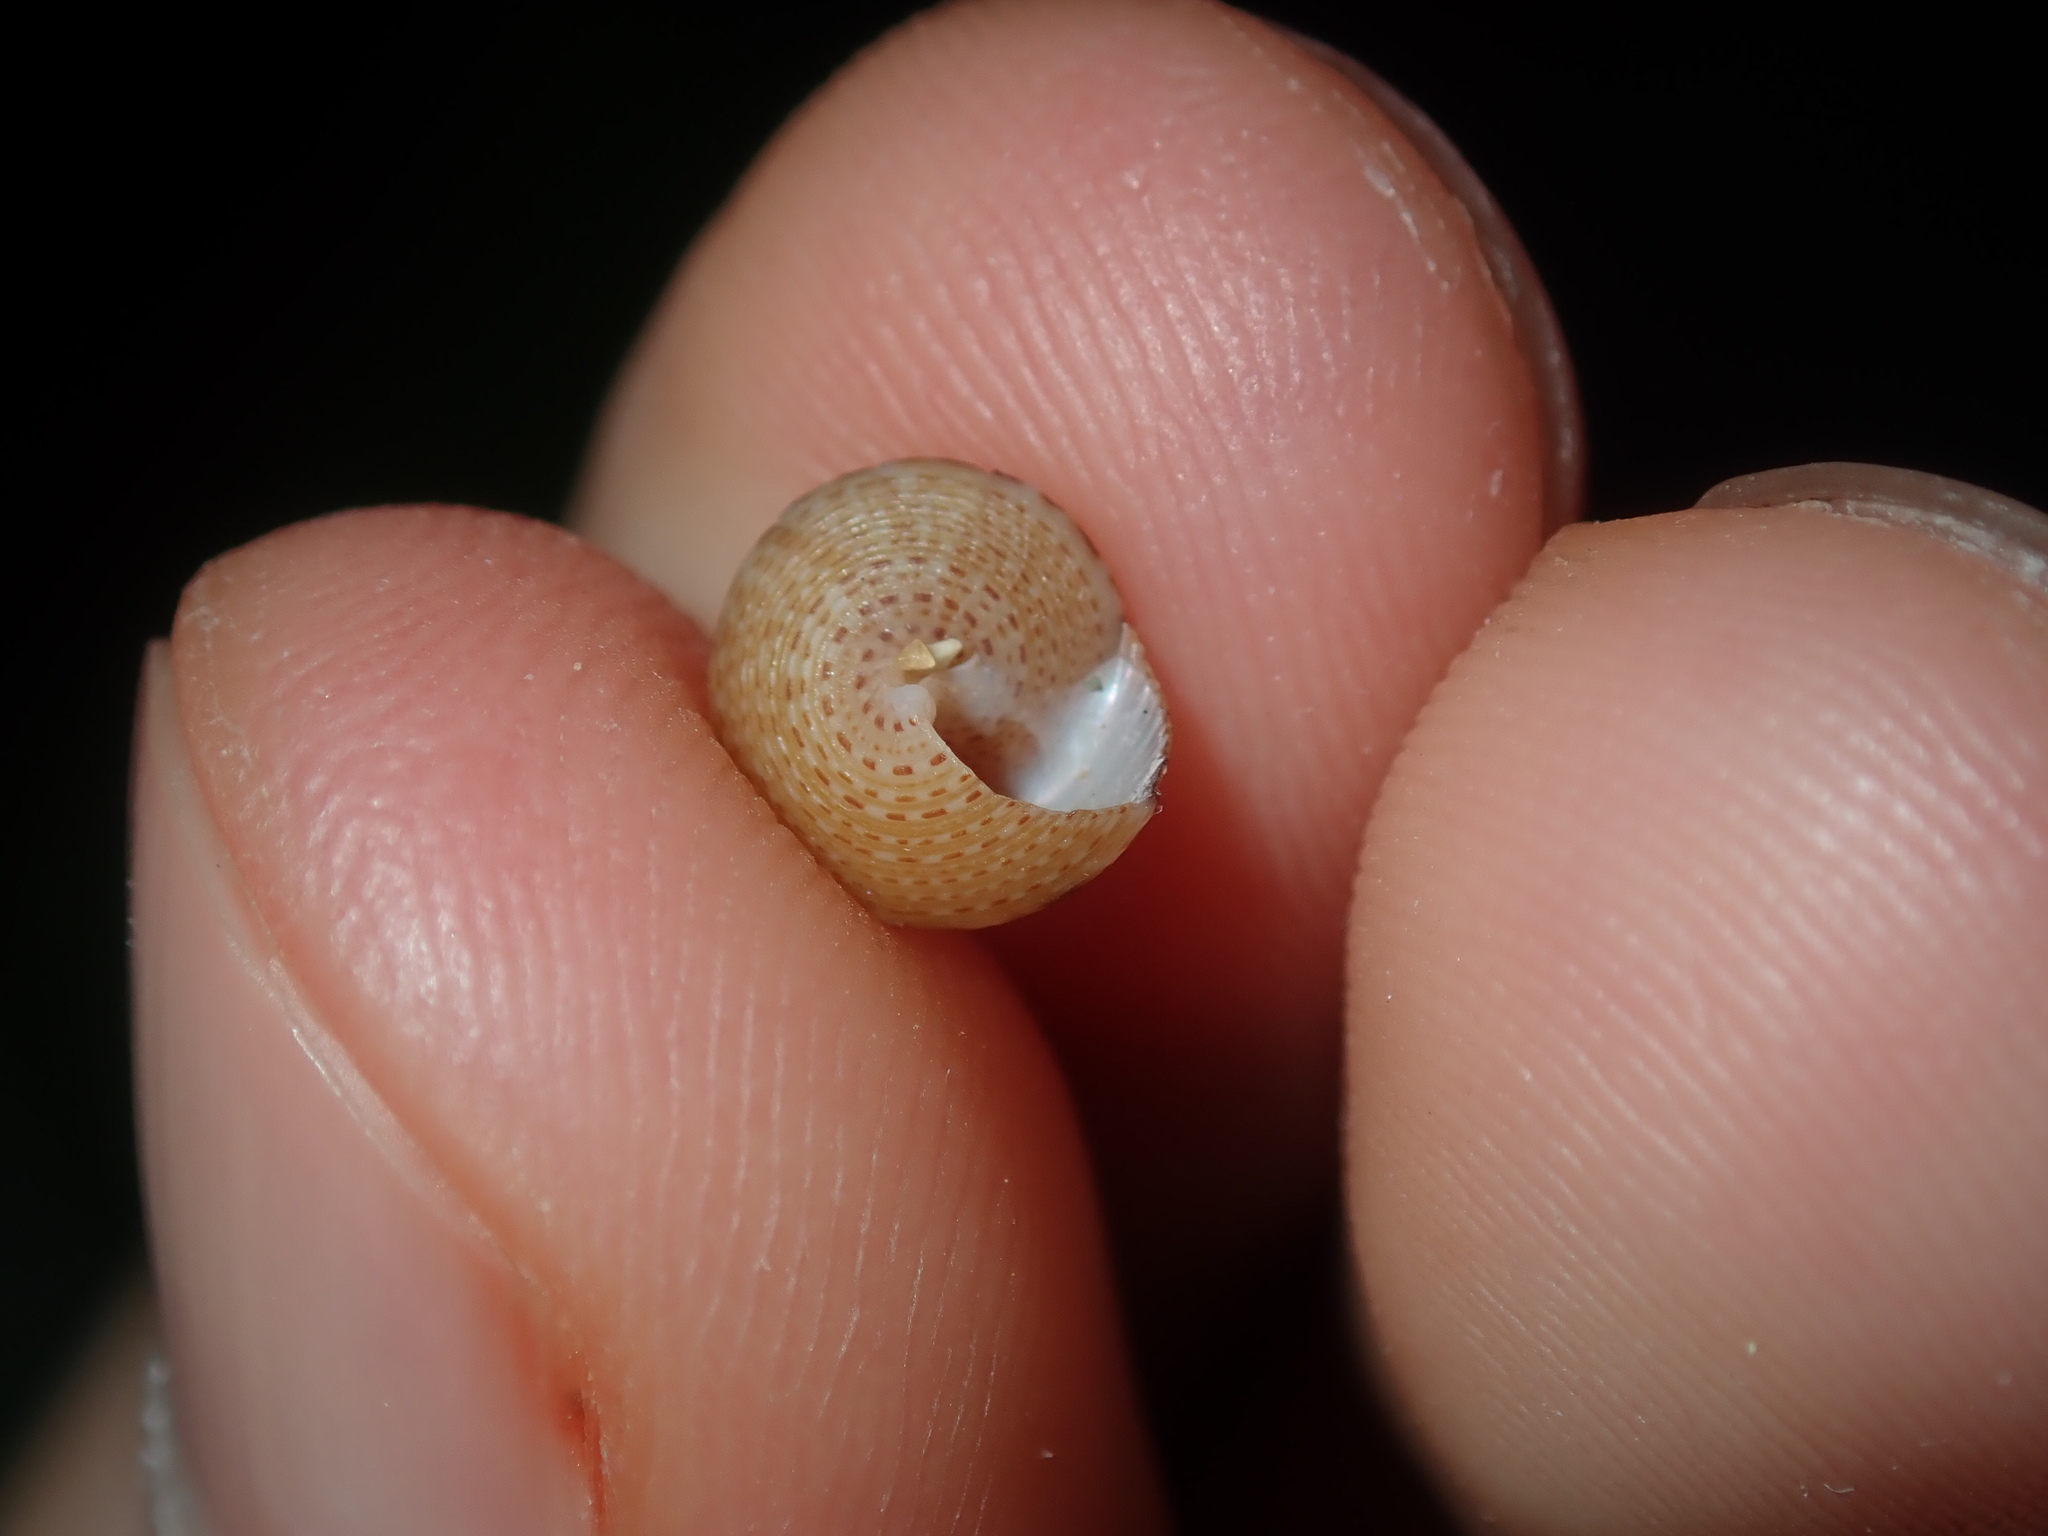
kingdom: Animalia
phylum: Mollusca
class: Gastropoda
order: Trochida
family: Calliostomatidae
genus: Astele
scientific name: Astele scitula
